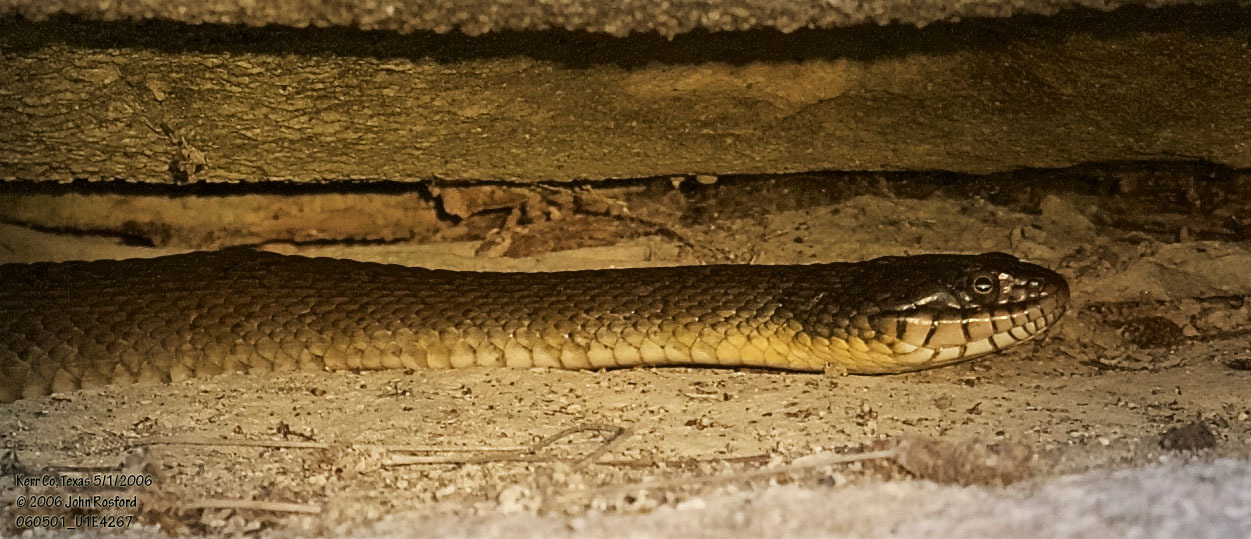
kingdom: Animalia
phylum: Chordata
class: Squamata
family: Colubridae
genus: Nerodia
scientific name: Nerodia erythrogaster
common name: Plainbelly water snake
